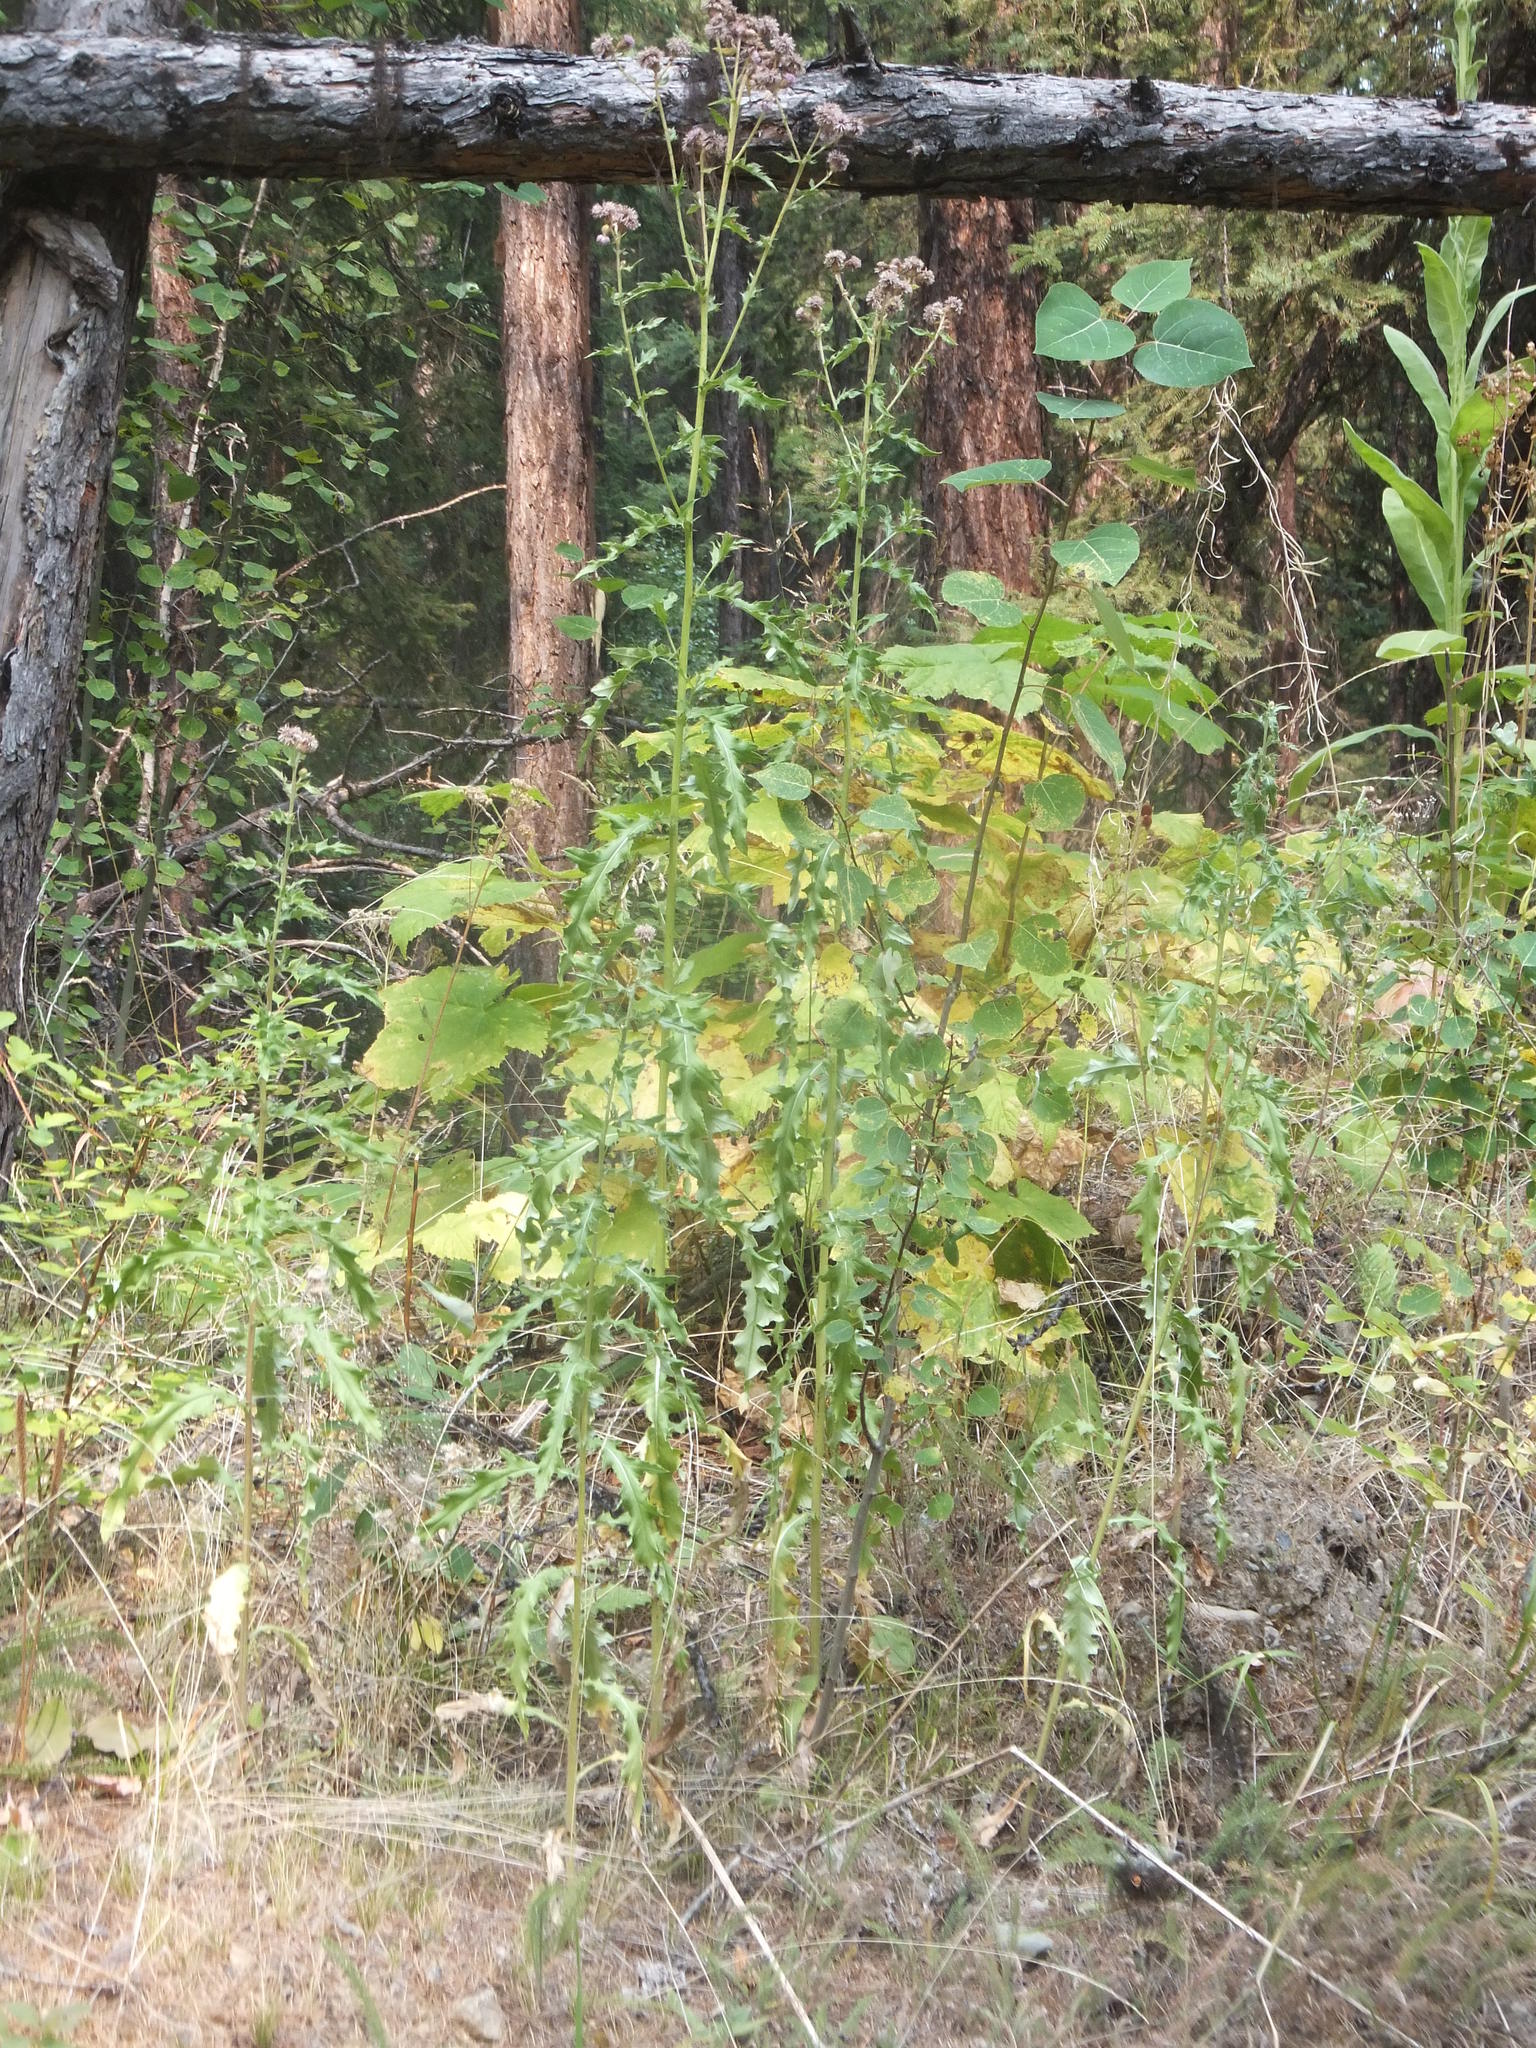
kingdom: Plantae
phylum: Tracheophyta
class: Magnoliopsida
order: Asterales
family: Asteraceae
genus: Cirsium
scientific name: Cirsium arvense
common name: Creeping thistle
